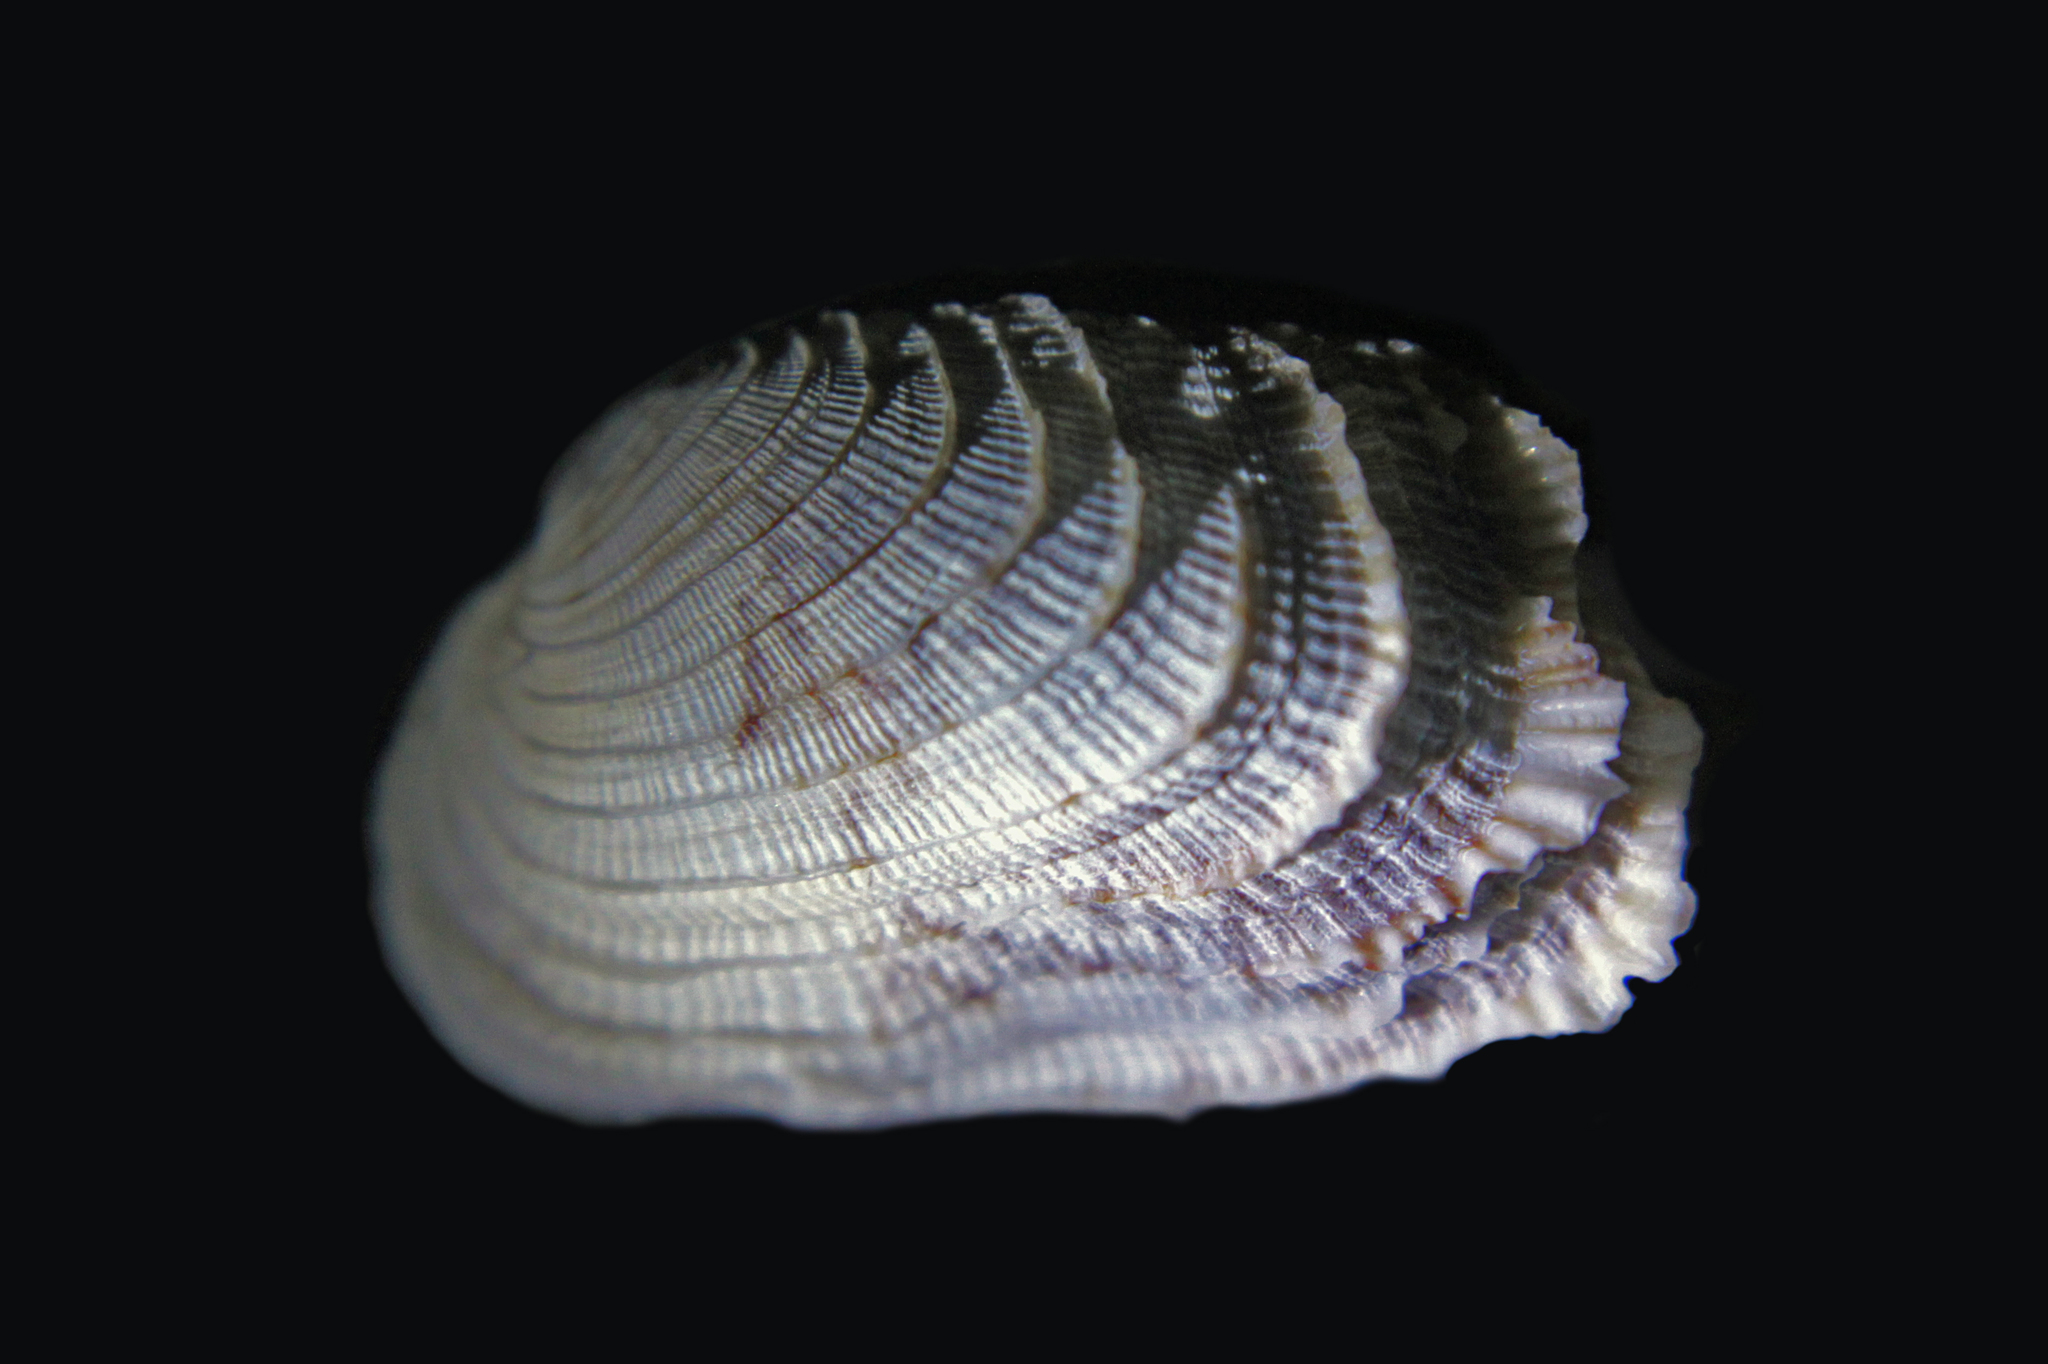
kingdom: Animalia
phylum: Mollusca
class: Bivalvia
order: Venerida
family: Veneridae
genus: Irus
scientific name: Irus irus
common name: Irus clam
